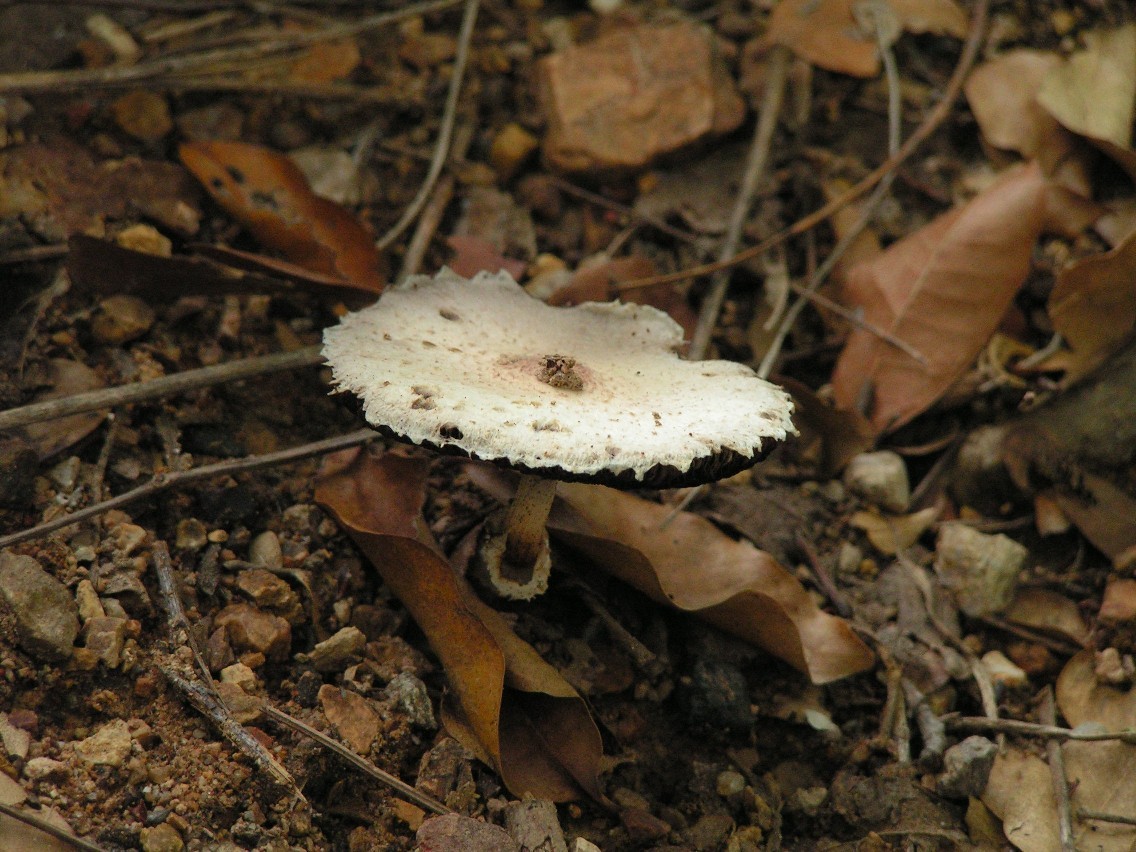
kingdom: Fungi
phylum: Basidiomycota
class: Agaricomycetes
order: Agaricales
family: Agaricaceae
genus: Agaricus
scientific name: Agaricus
